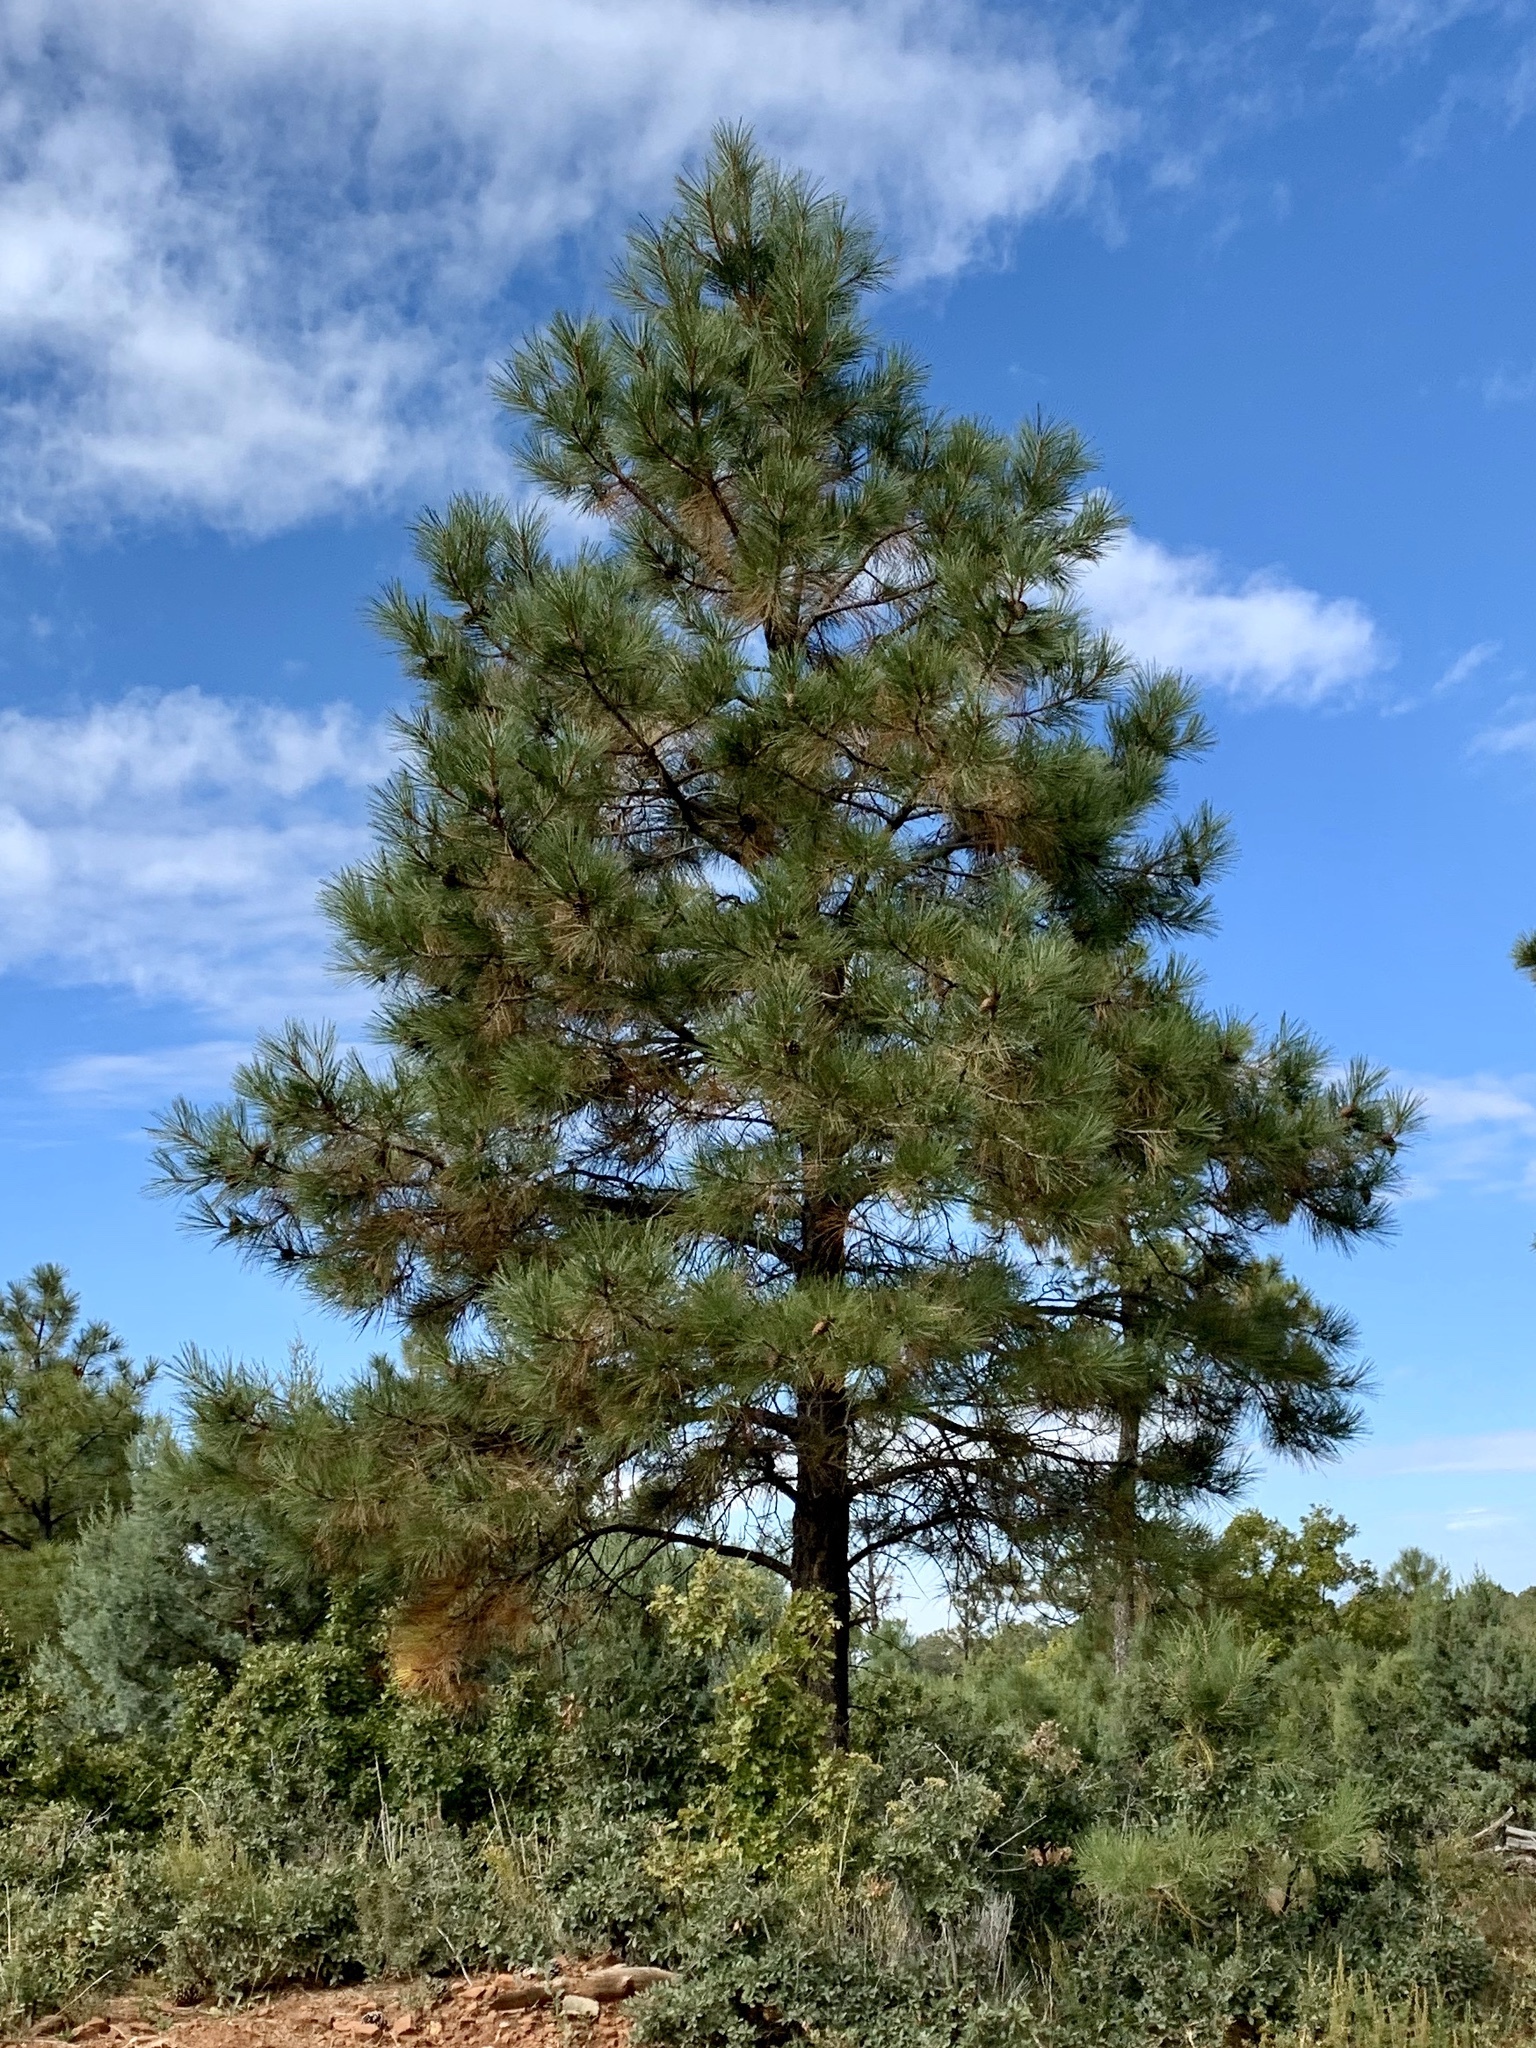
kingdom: Plantae
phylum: Tracheophyta
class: Pinopsida
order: Pinales
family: Pinaceae
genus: Pinus
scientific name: Pinus ponderosa
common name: Western yellow-pine
